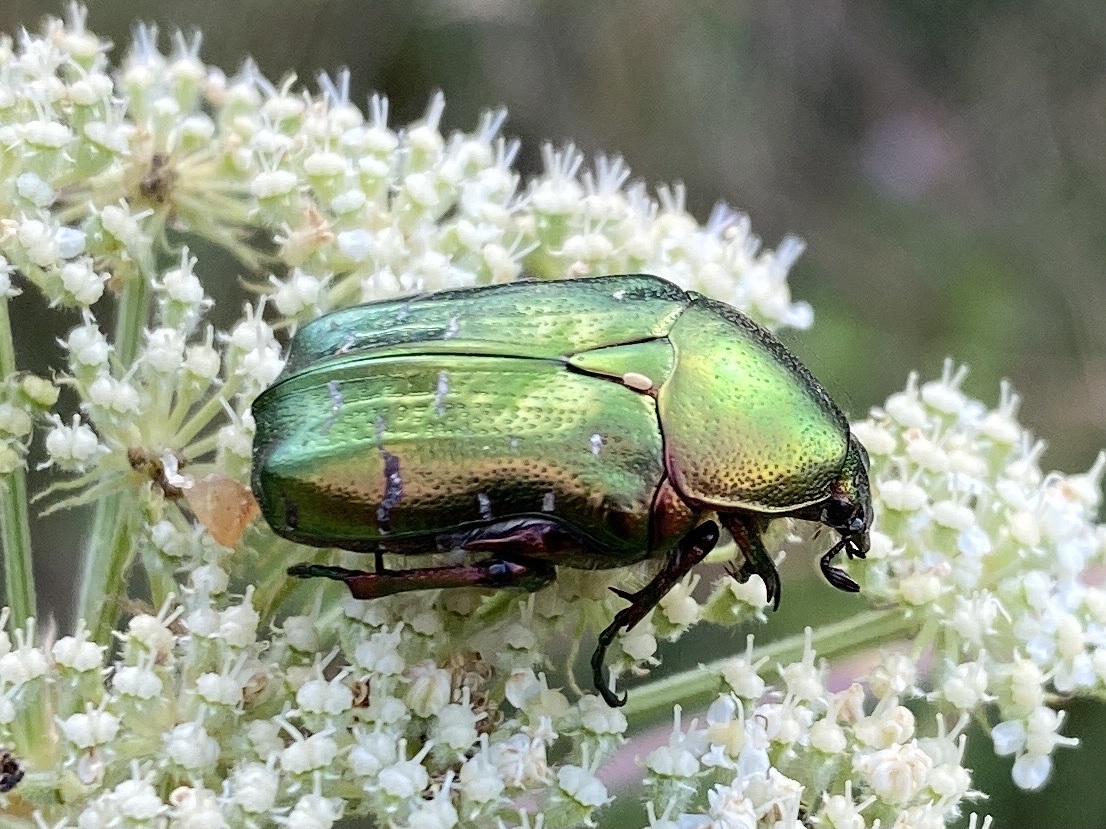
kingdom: Animalia
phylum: Arthropoda
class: Insecta
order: Coleoptera
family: Scarabaeidae
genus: Cetonia
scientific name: Cetonia aurata
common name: Rose chafer
